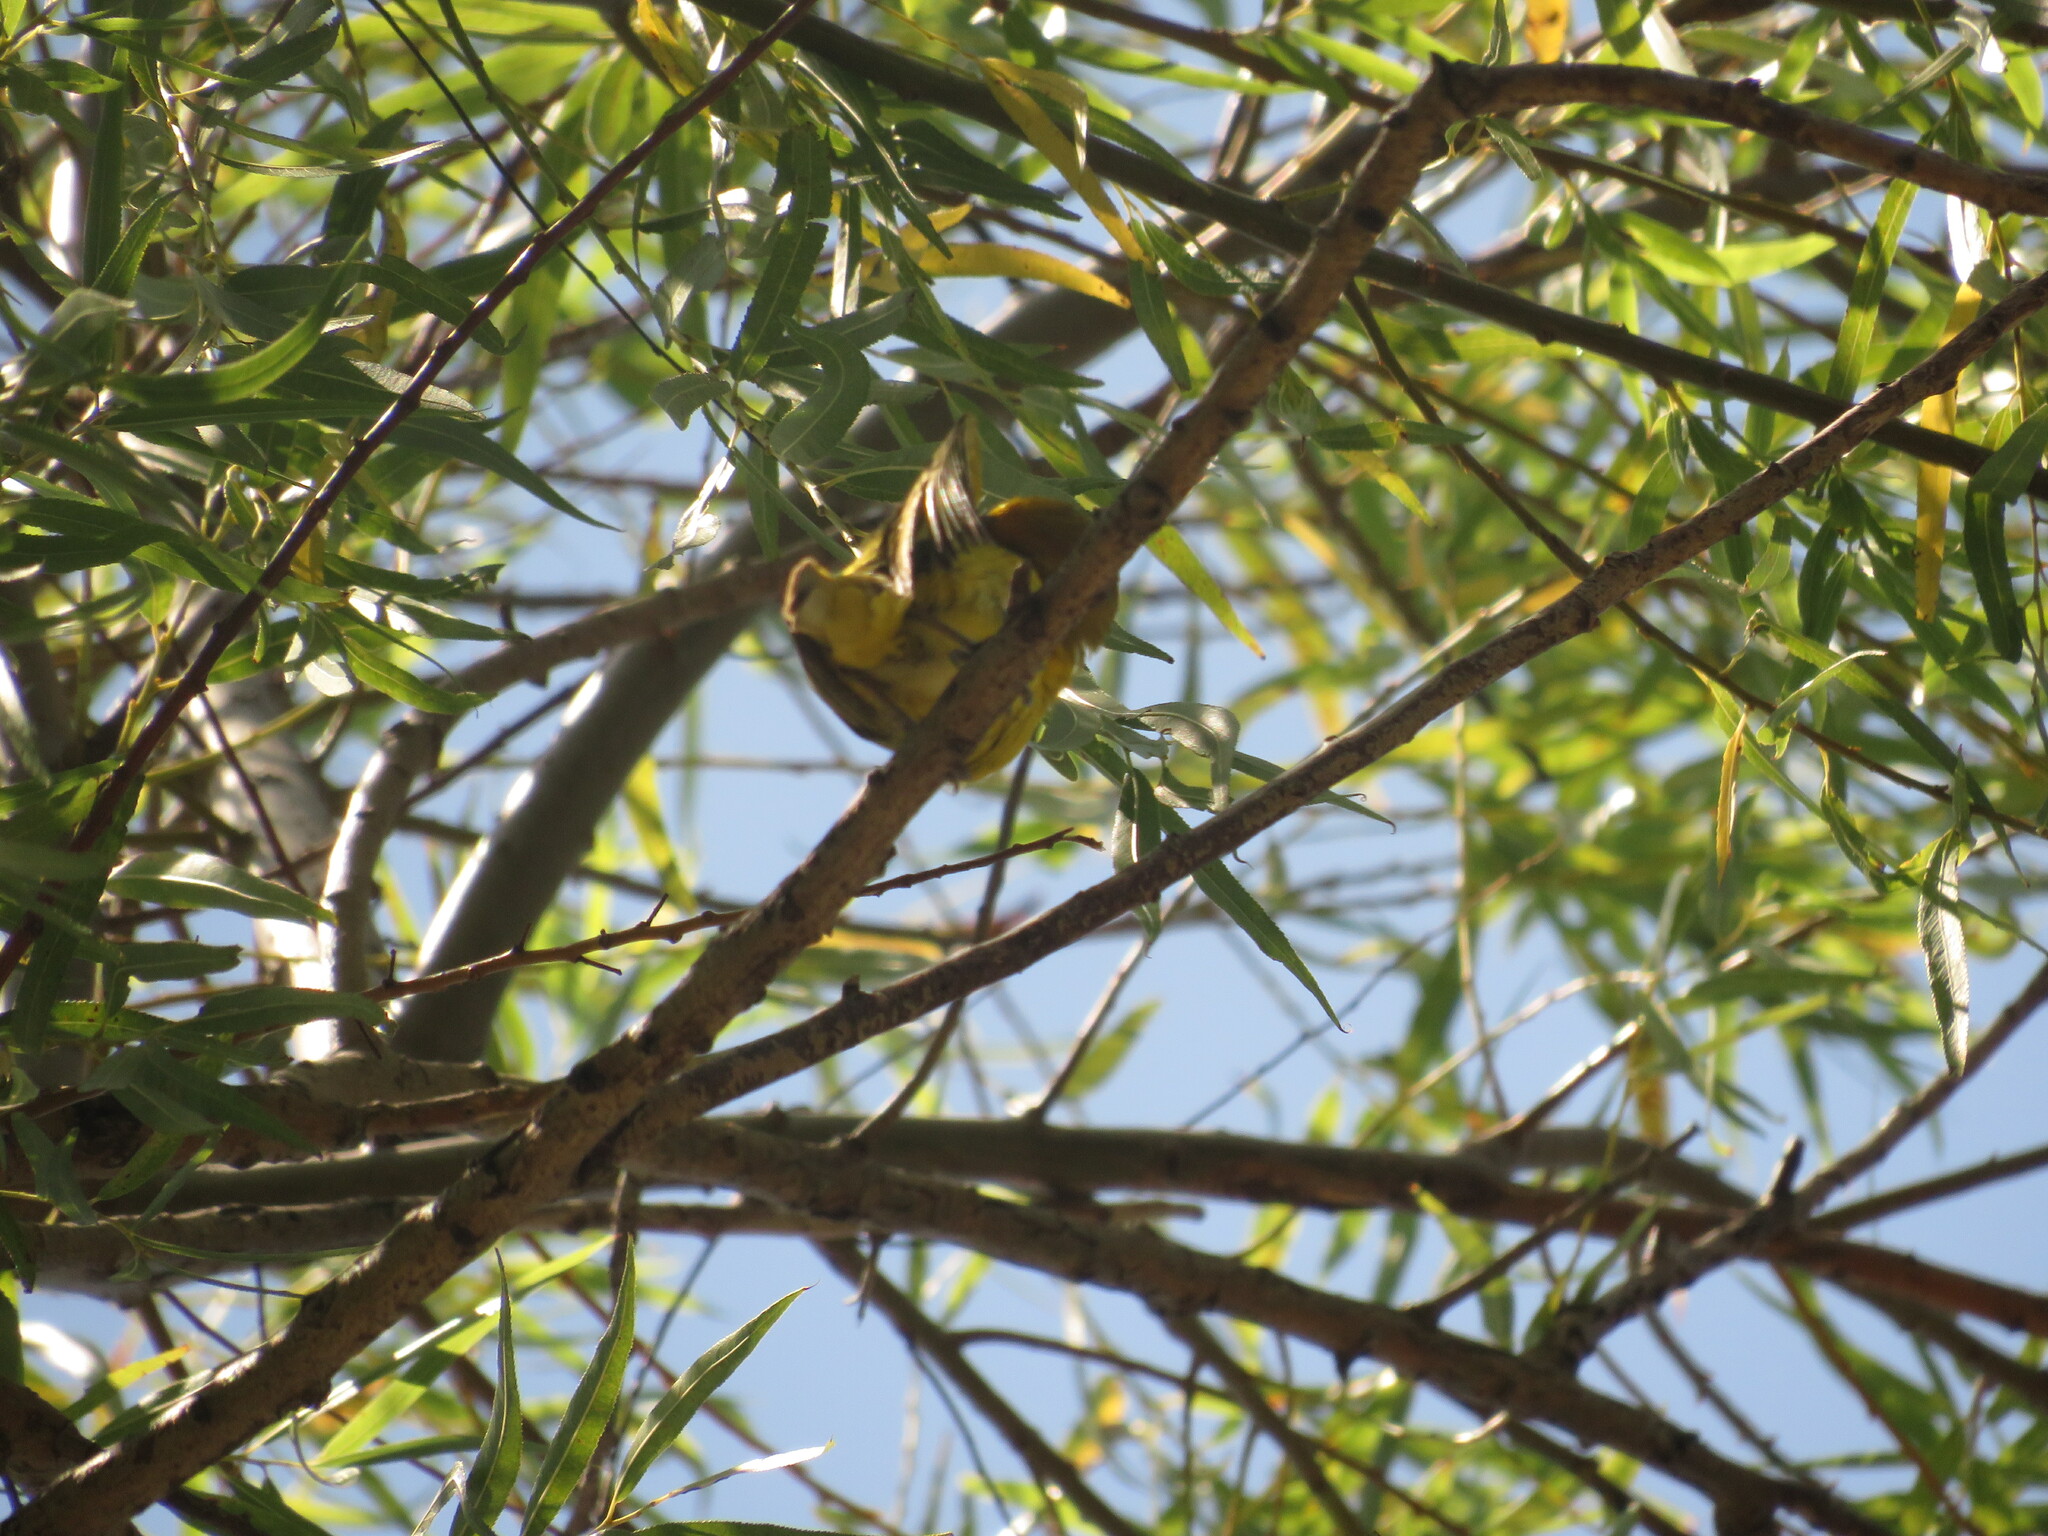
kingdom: Animalia
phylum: Chordata
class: Aves
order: Passeriformes
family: Thraupidae
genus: Sicalis
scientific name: Sicalis flaveola
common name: Saffron finch
